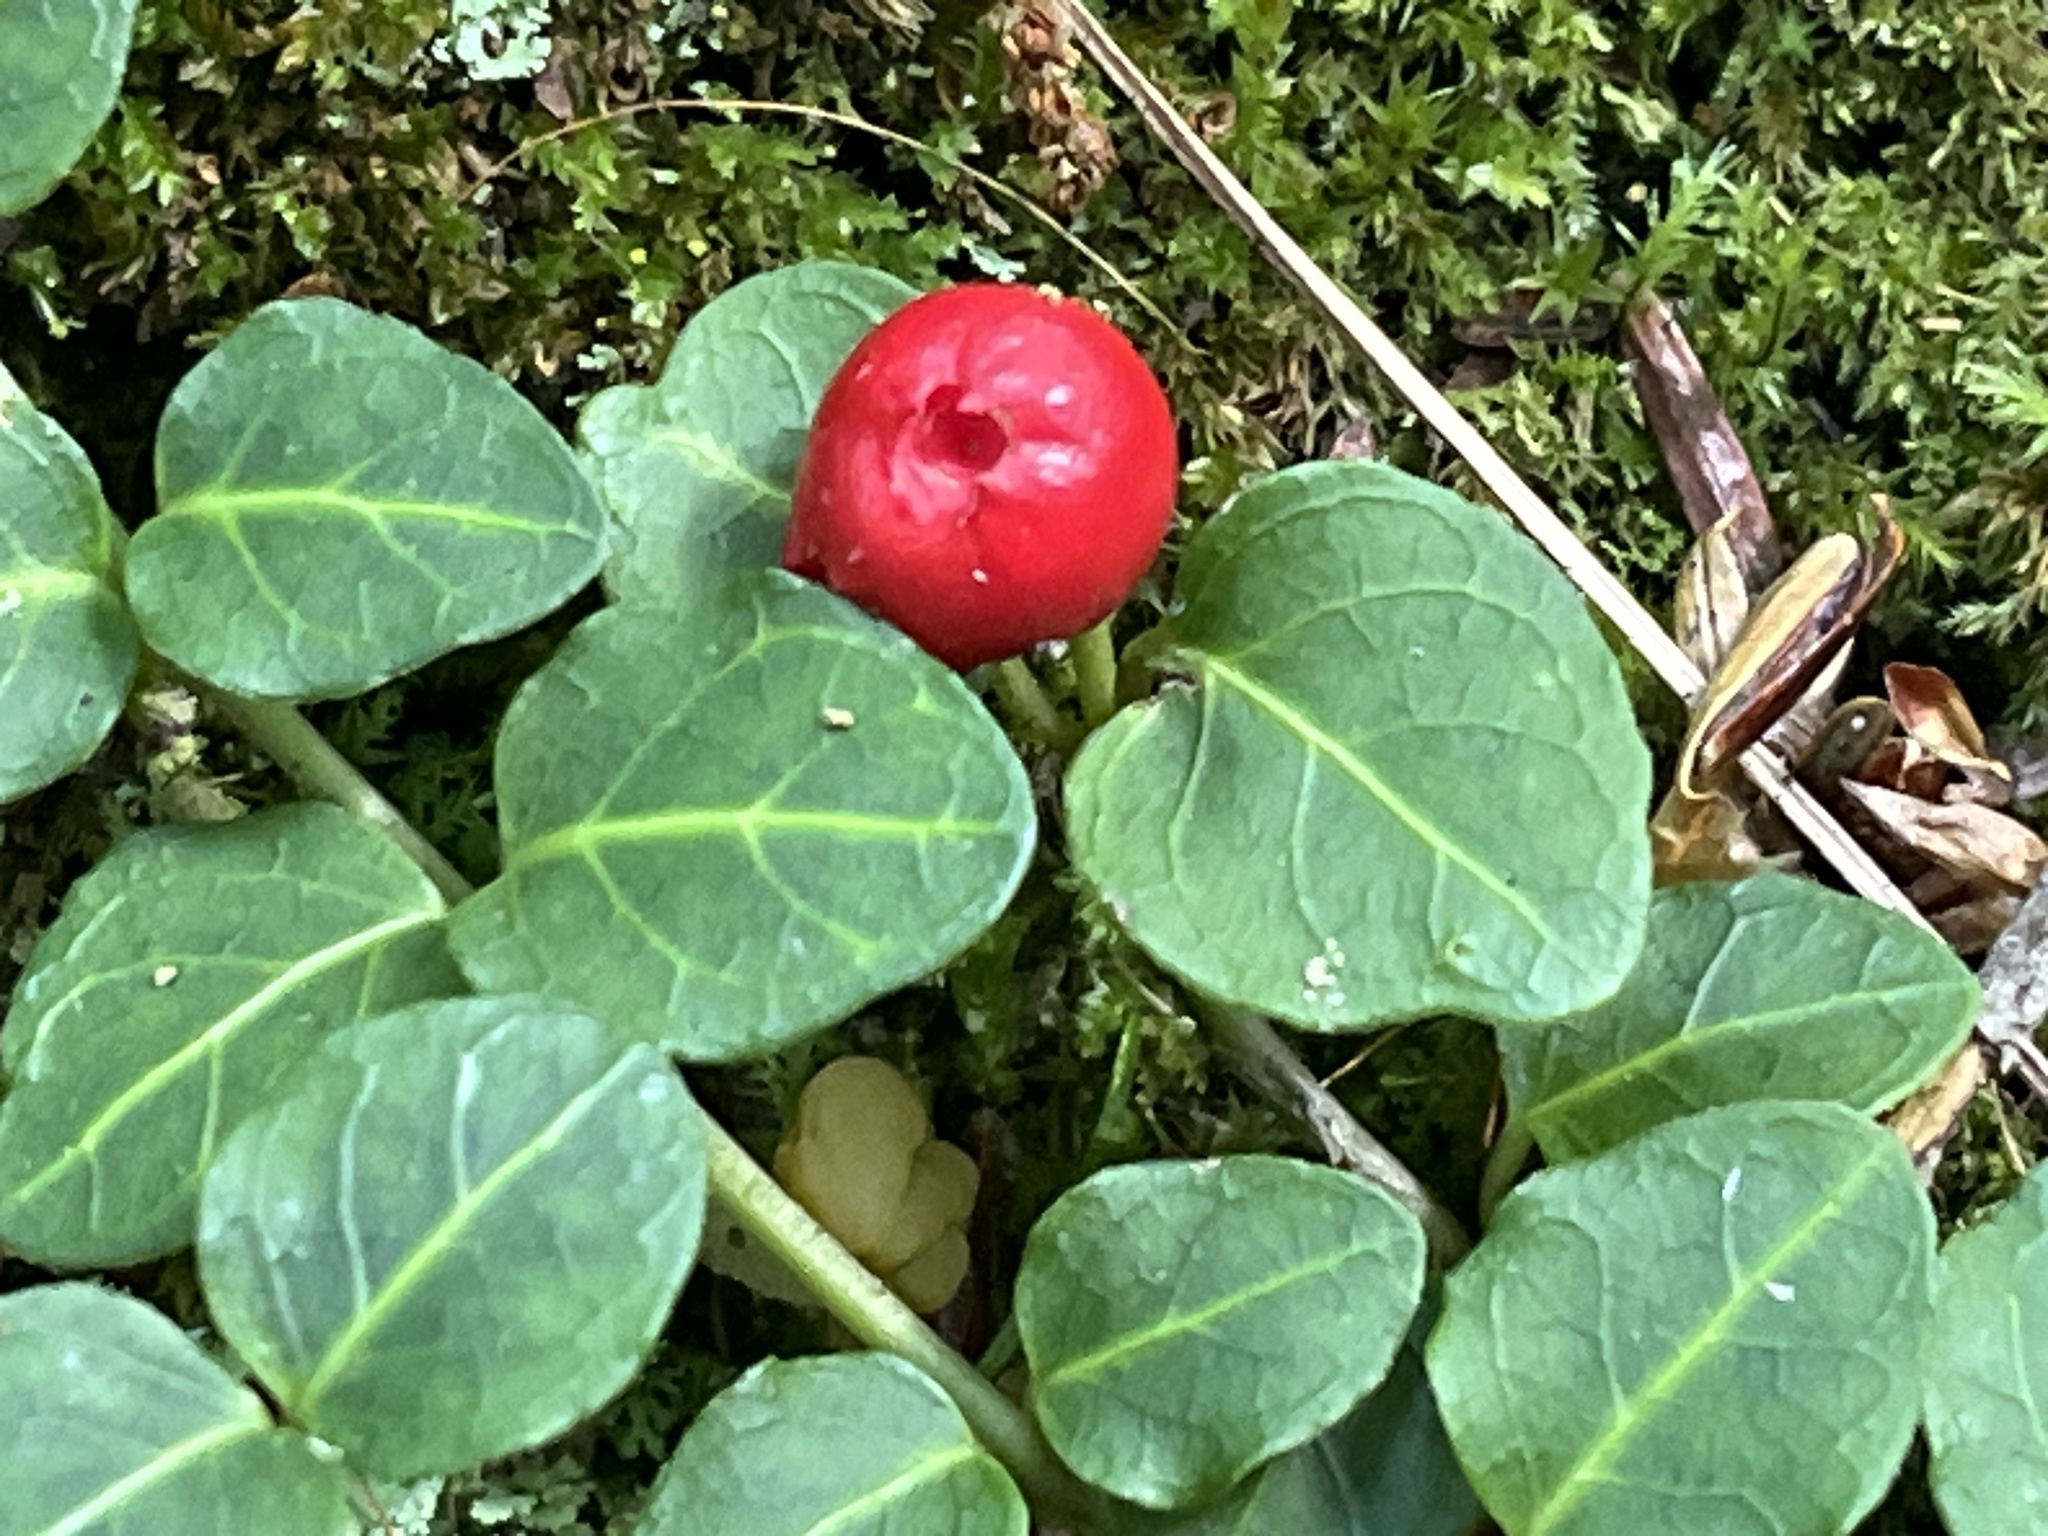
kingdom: Plantae
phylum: Tracheophyta
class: Magnoliopsida
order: Gentianales
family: Rubiaceae
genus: Mitchella
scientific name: Mitchella repens
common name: Partridge-berry
